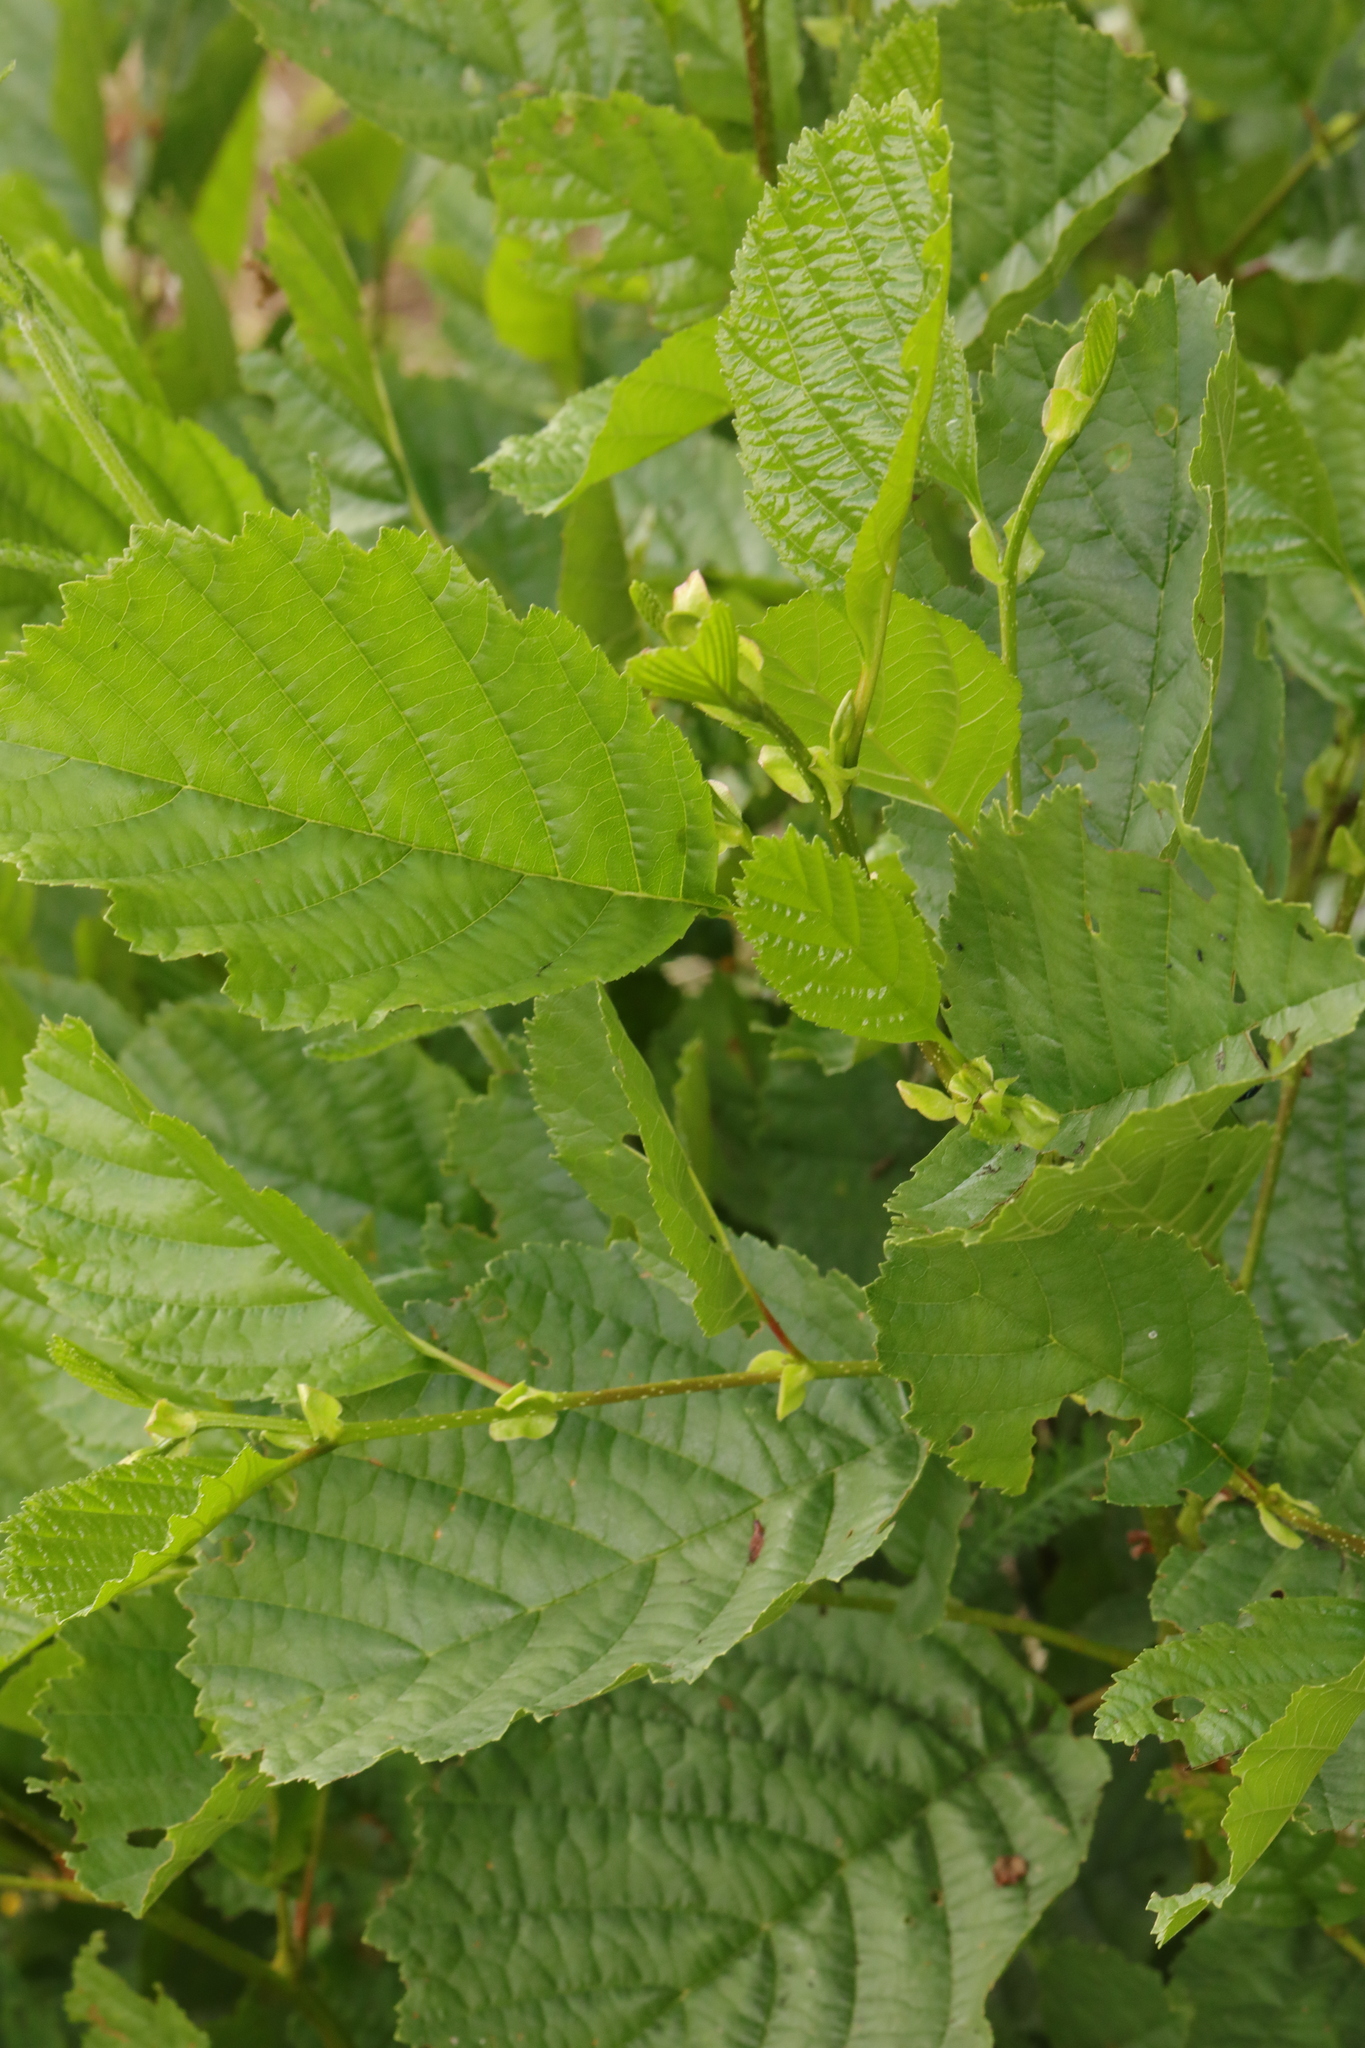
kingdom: Plantae
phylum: Tracheophyta
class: Magnoliopsida
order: Fagales
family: Betulaceae
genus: Alnus
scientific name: Alnus glutinosa
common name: Black alder
